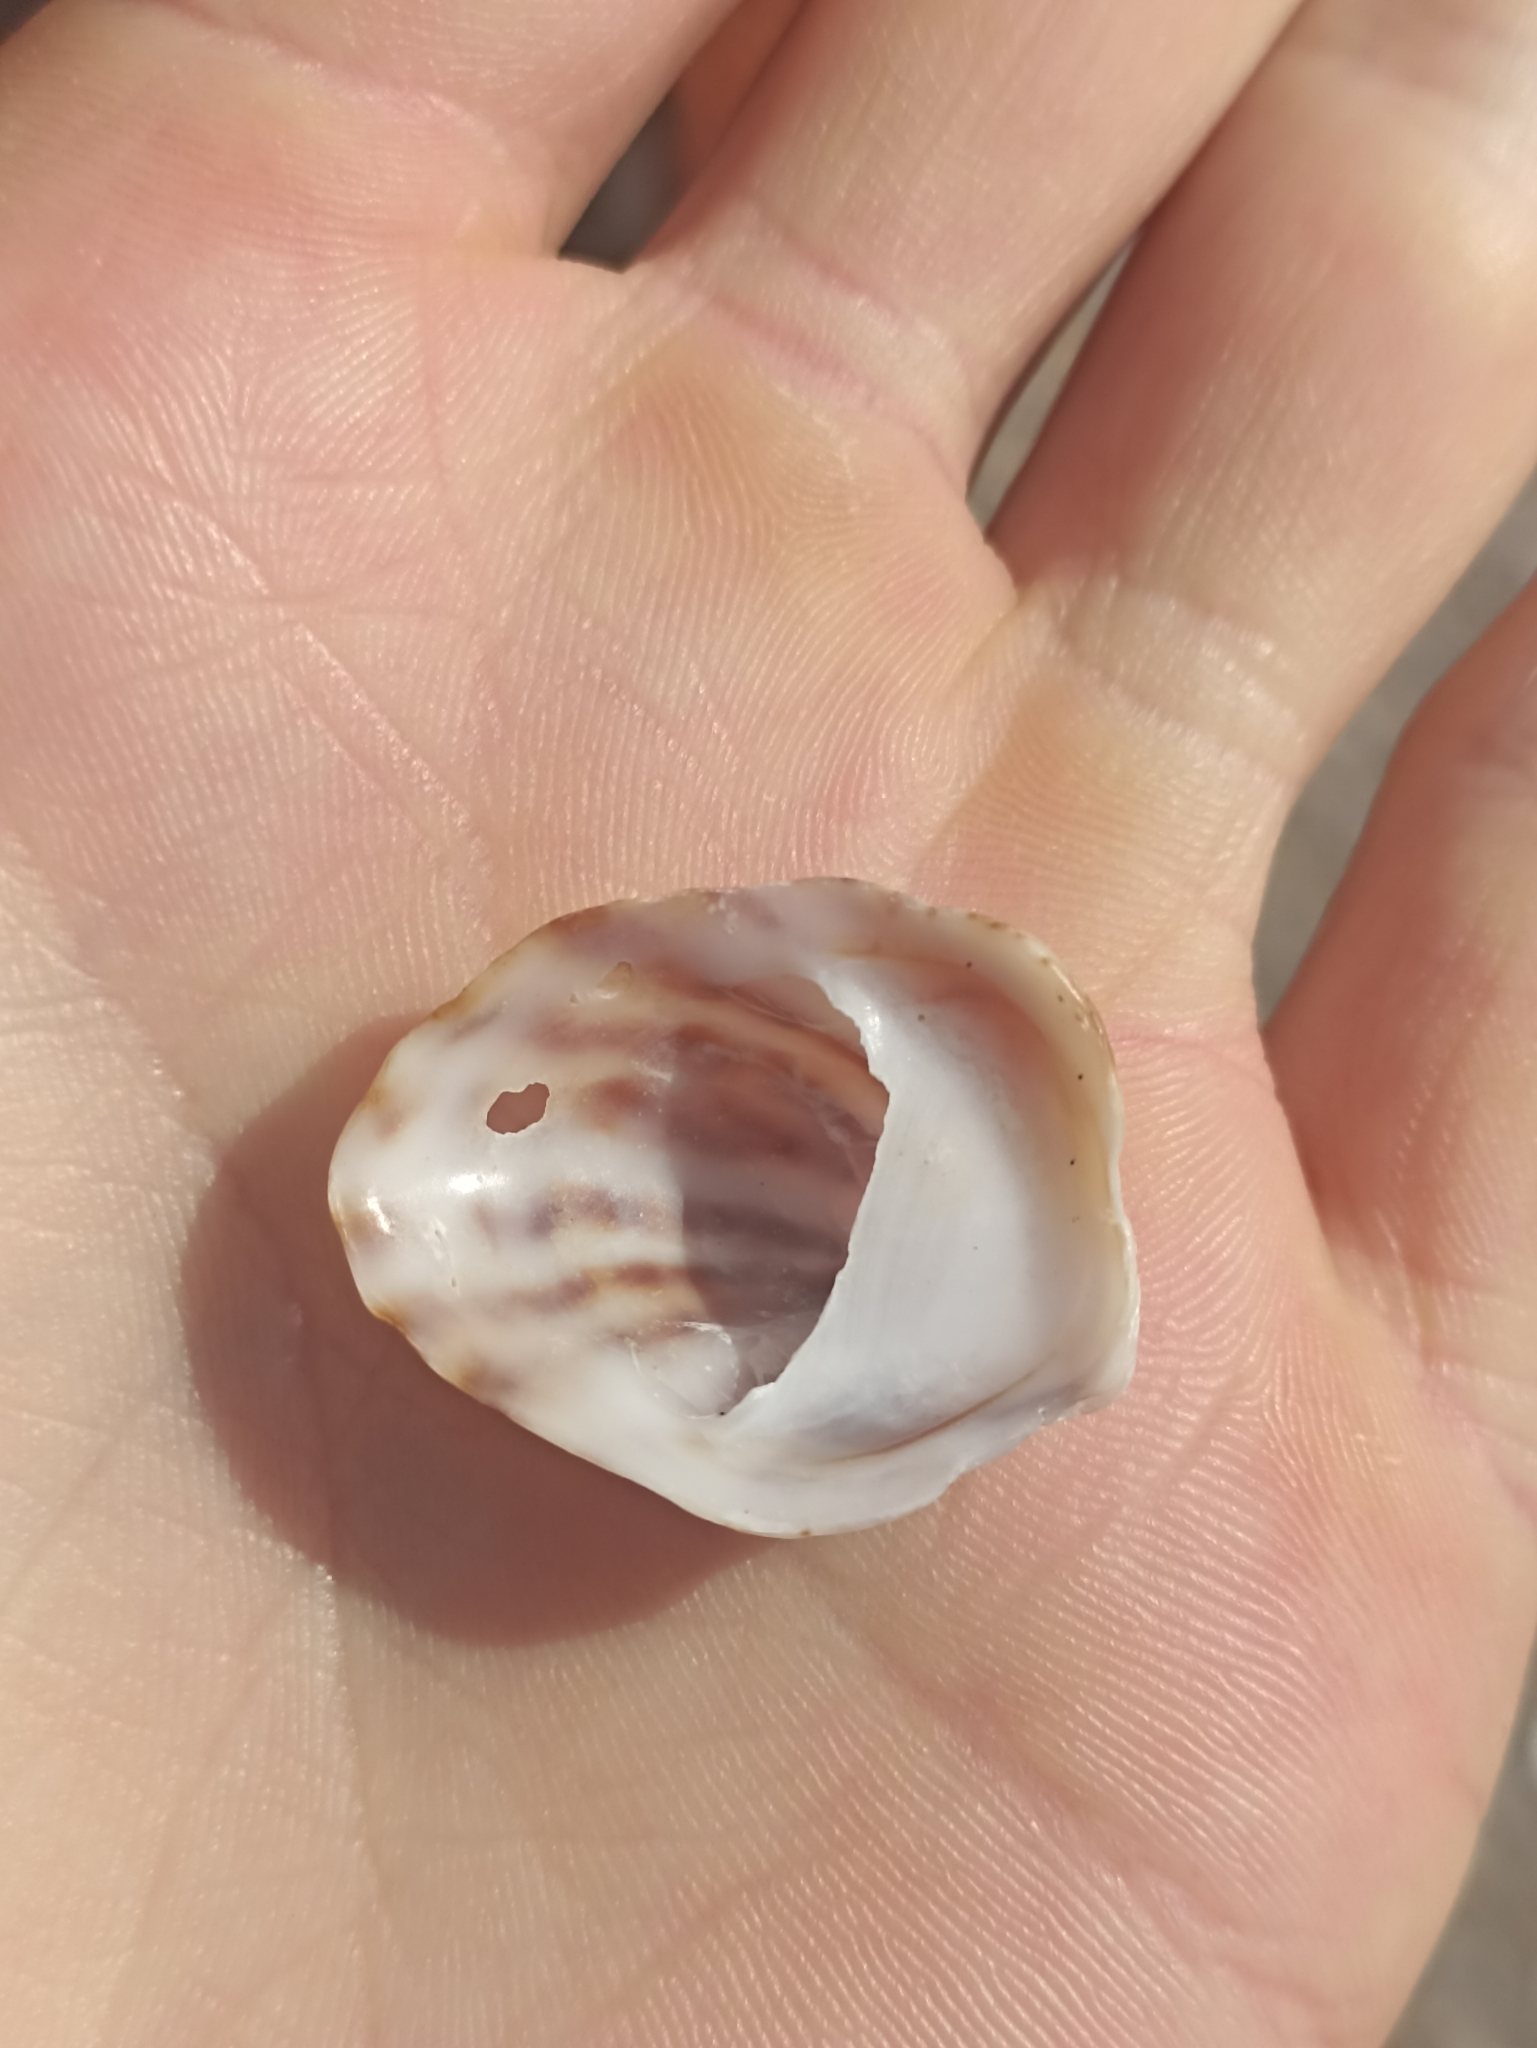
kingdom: Animalia
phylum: Mollusca
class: Gastropoda
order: Littorinimorpha
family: Calyptraeidae
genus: Maoricrypta
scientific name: Maoricrypta costata
